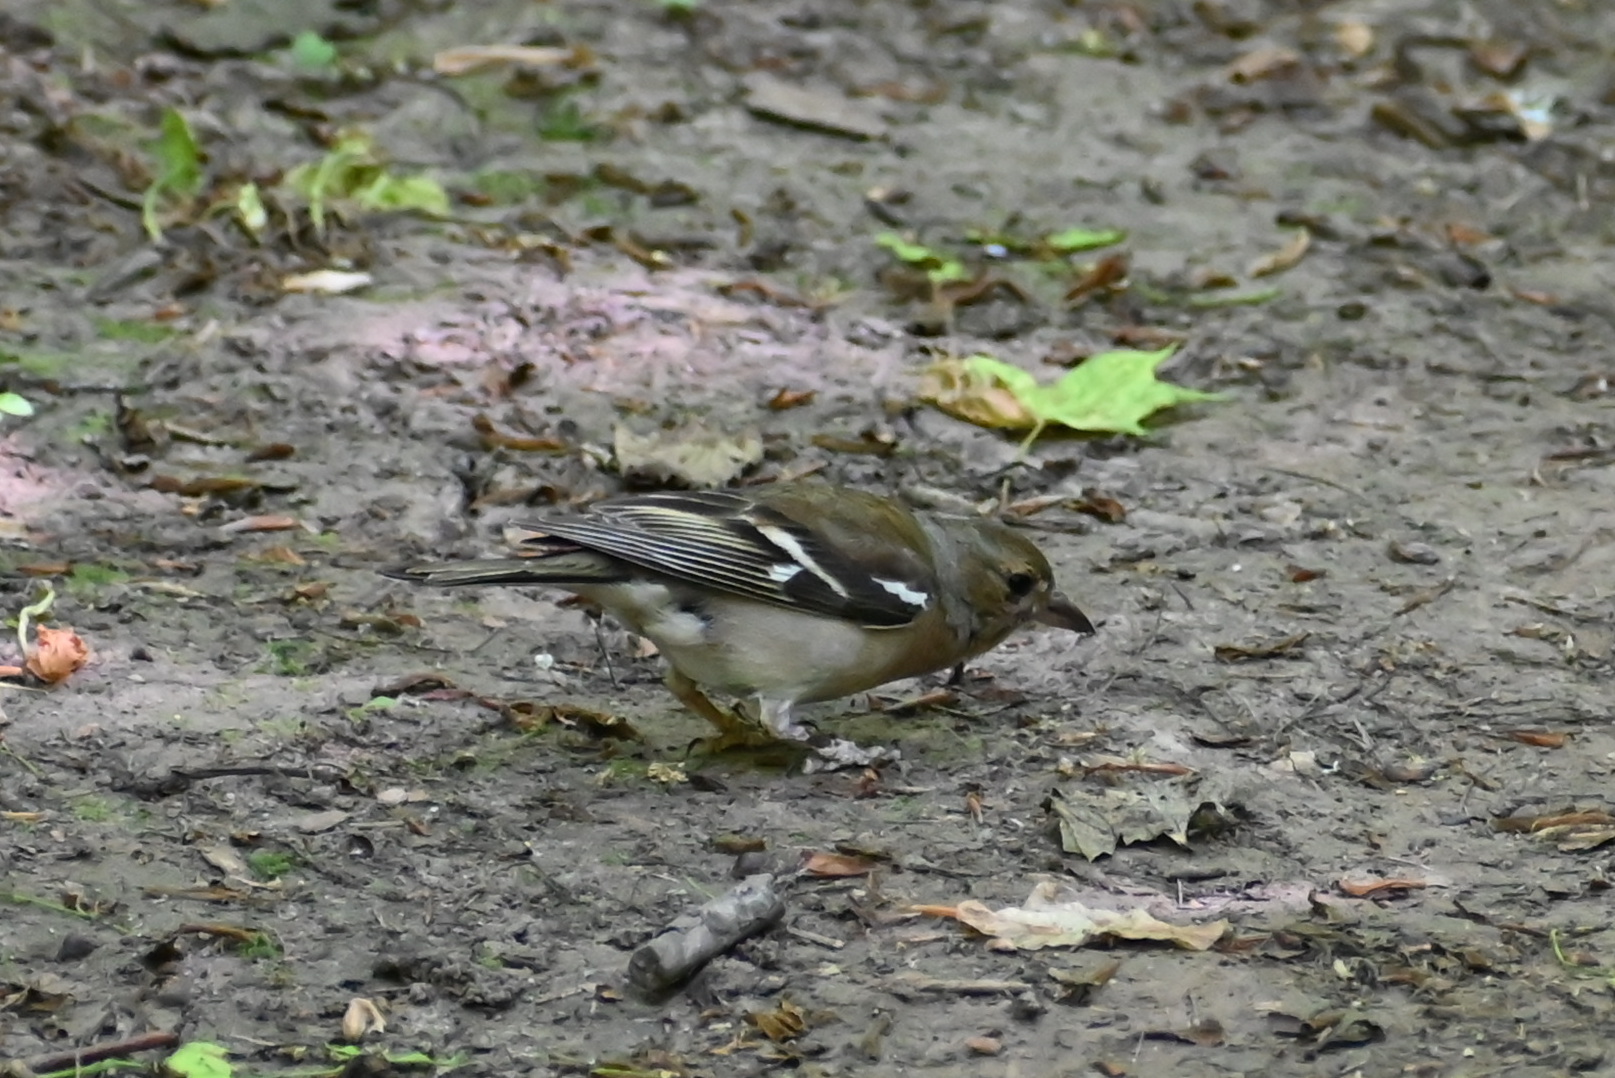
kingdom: Animalia
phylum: Chordata
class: Aves
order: Passeriformes
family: Fringillidae
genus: Fringilla
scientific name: Fringilla coelebs
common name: Common chaffinch
